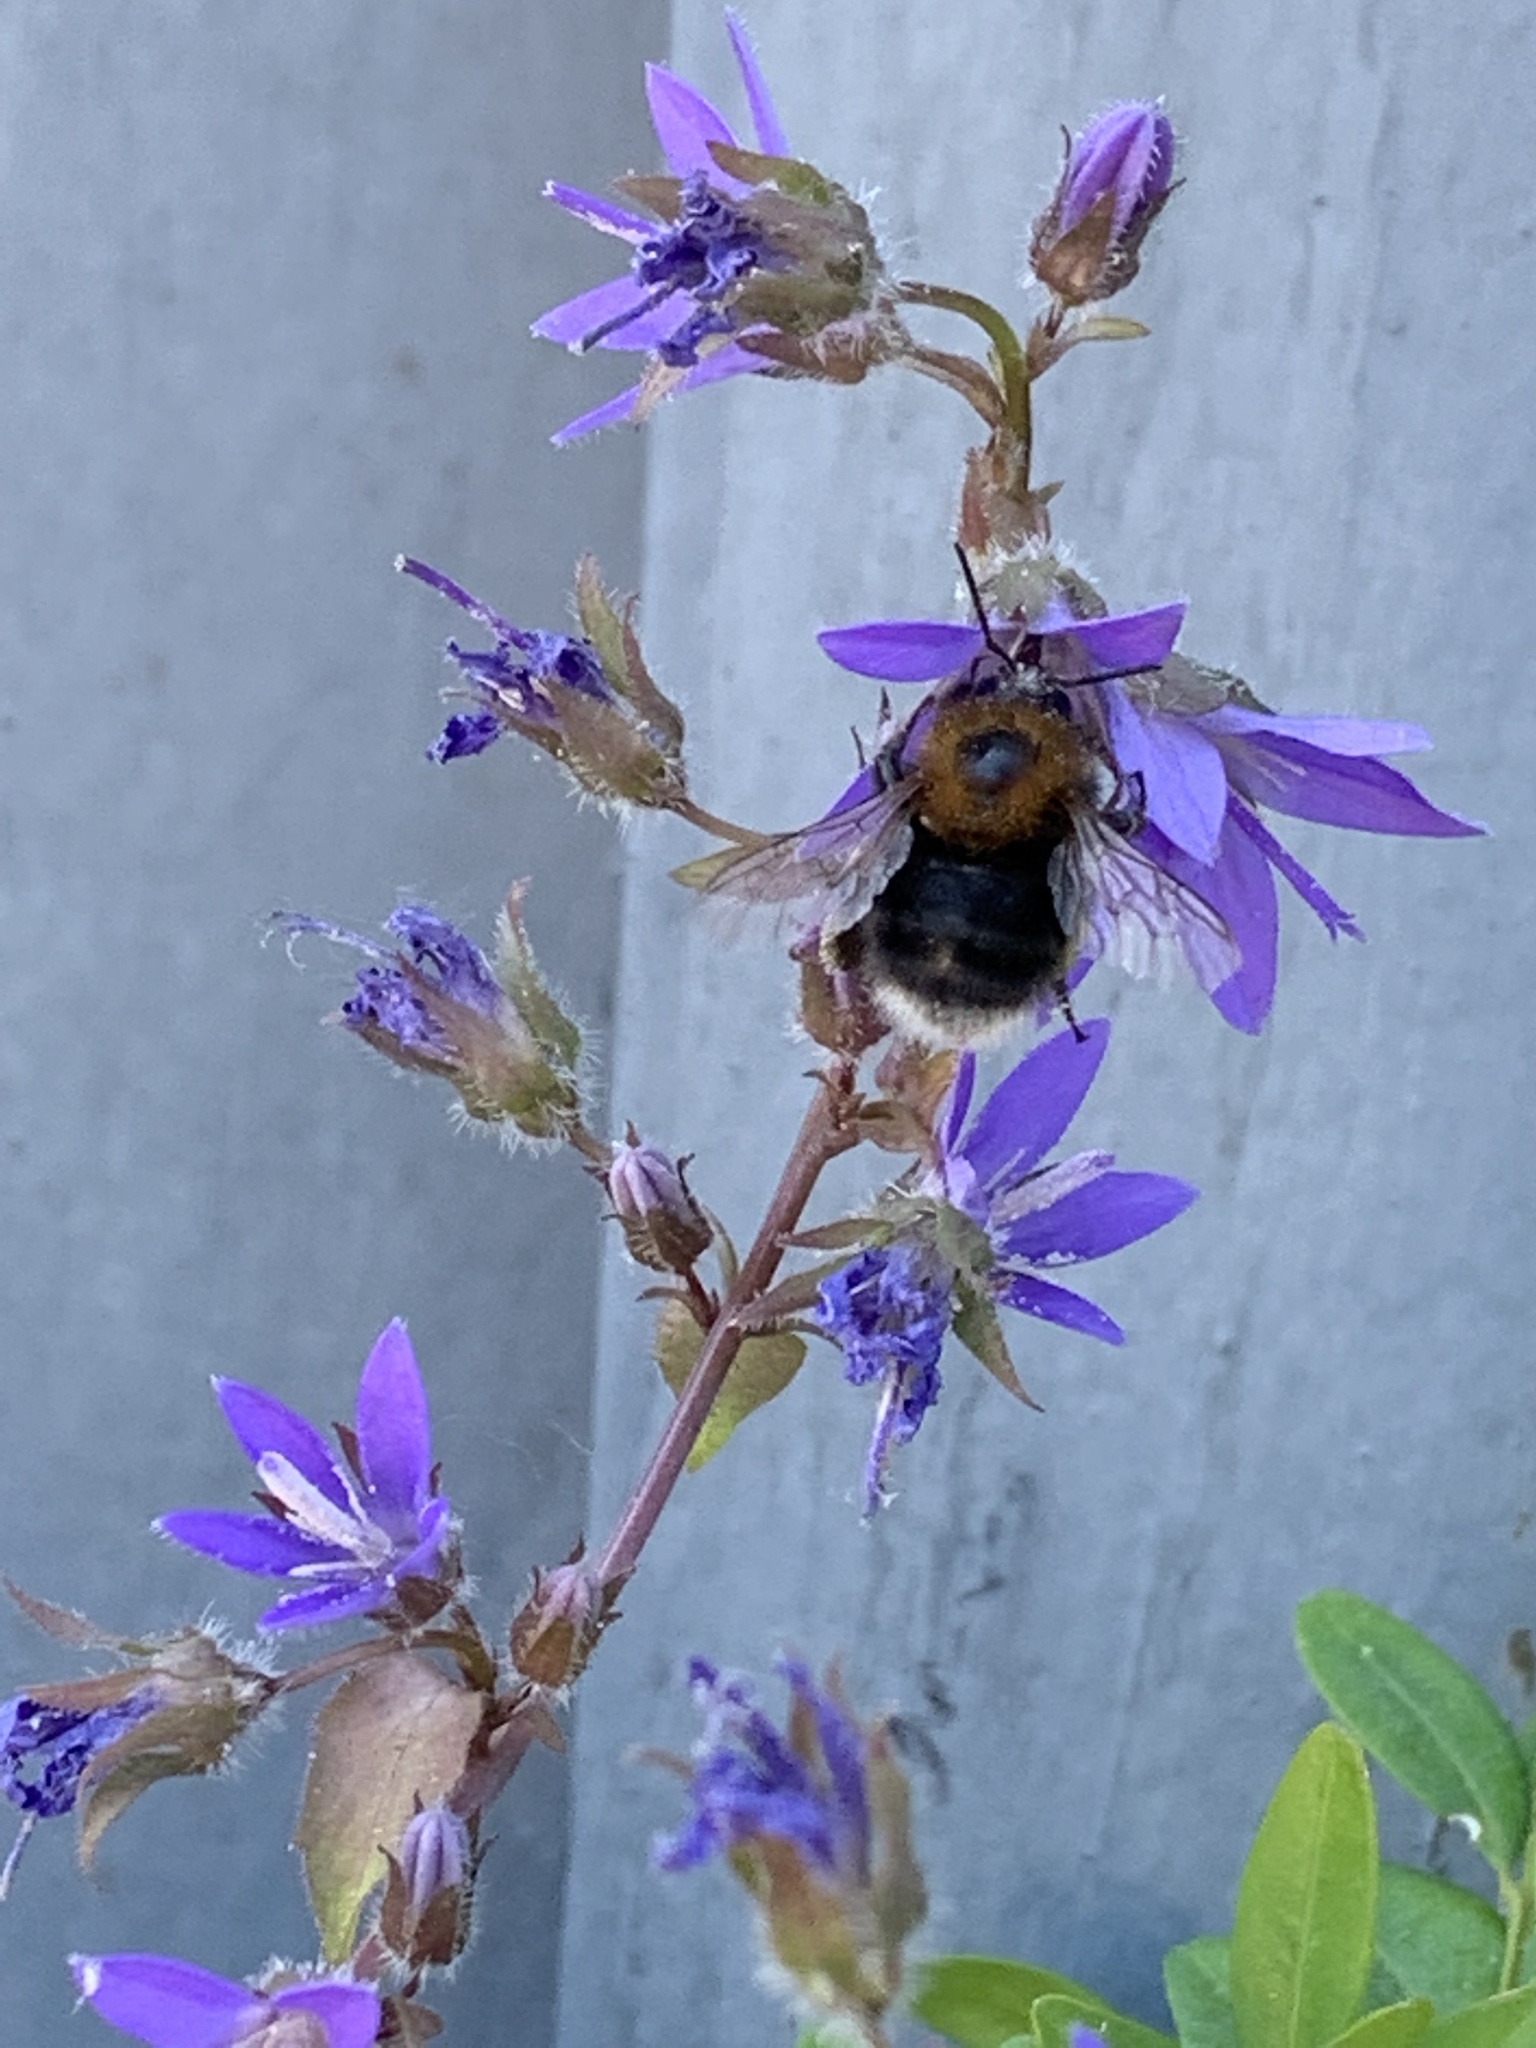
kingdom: Animalia
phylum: Arthropoda
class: Insecta
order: Hymenoptera
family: Apidae
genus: Bombus
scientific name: Bombus hypnorum
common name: New garden bumblebee
